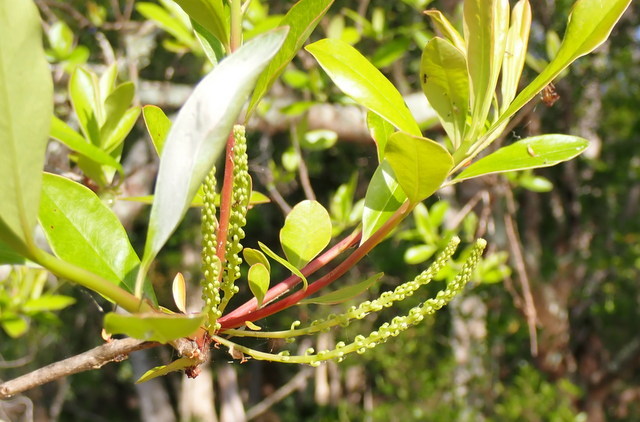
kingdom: Plantae
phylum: Tracheophyta
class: Magnoliopsida
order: Ericales
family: Cyrillaceae
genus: Cyrilla
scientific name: Cyrilla racemiflora
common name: Black titi
